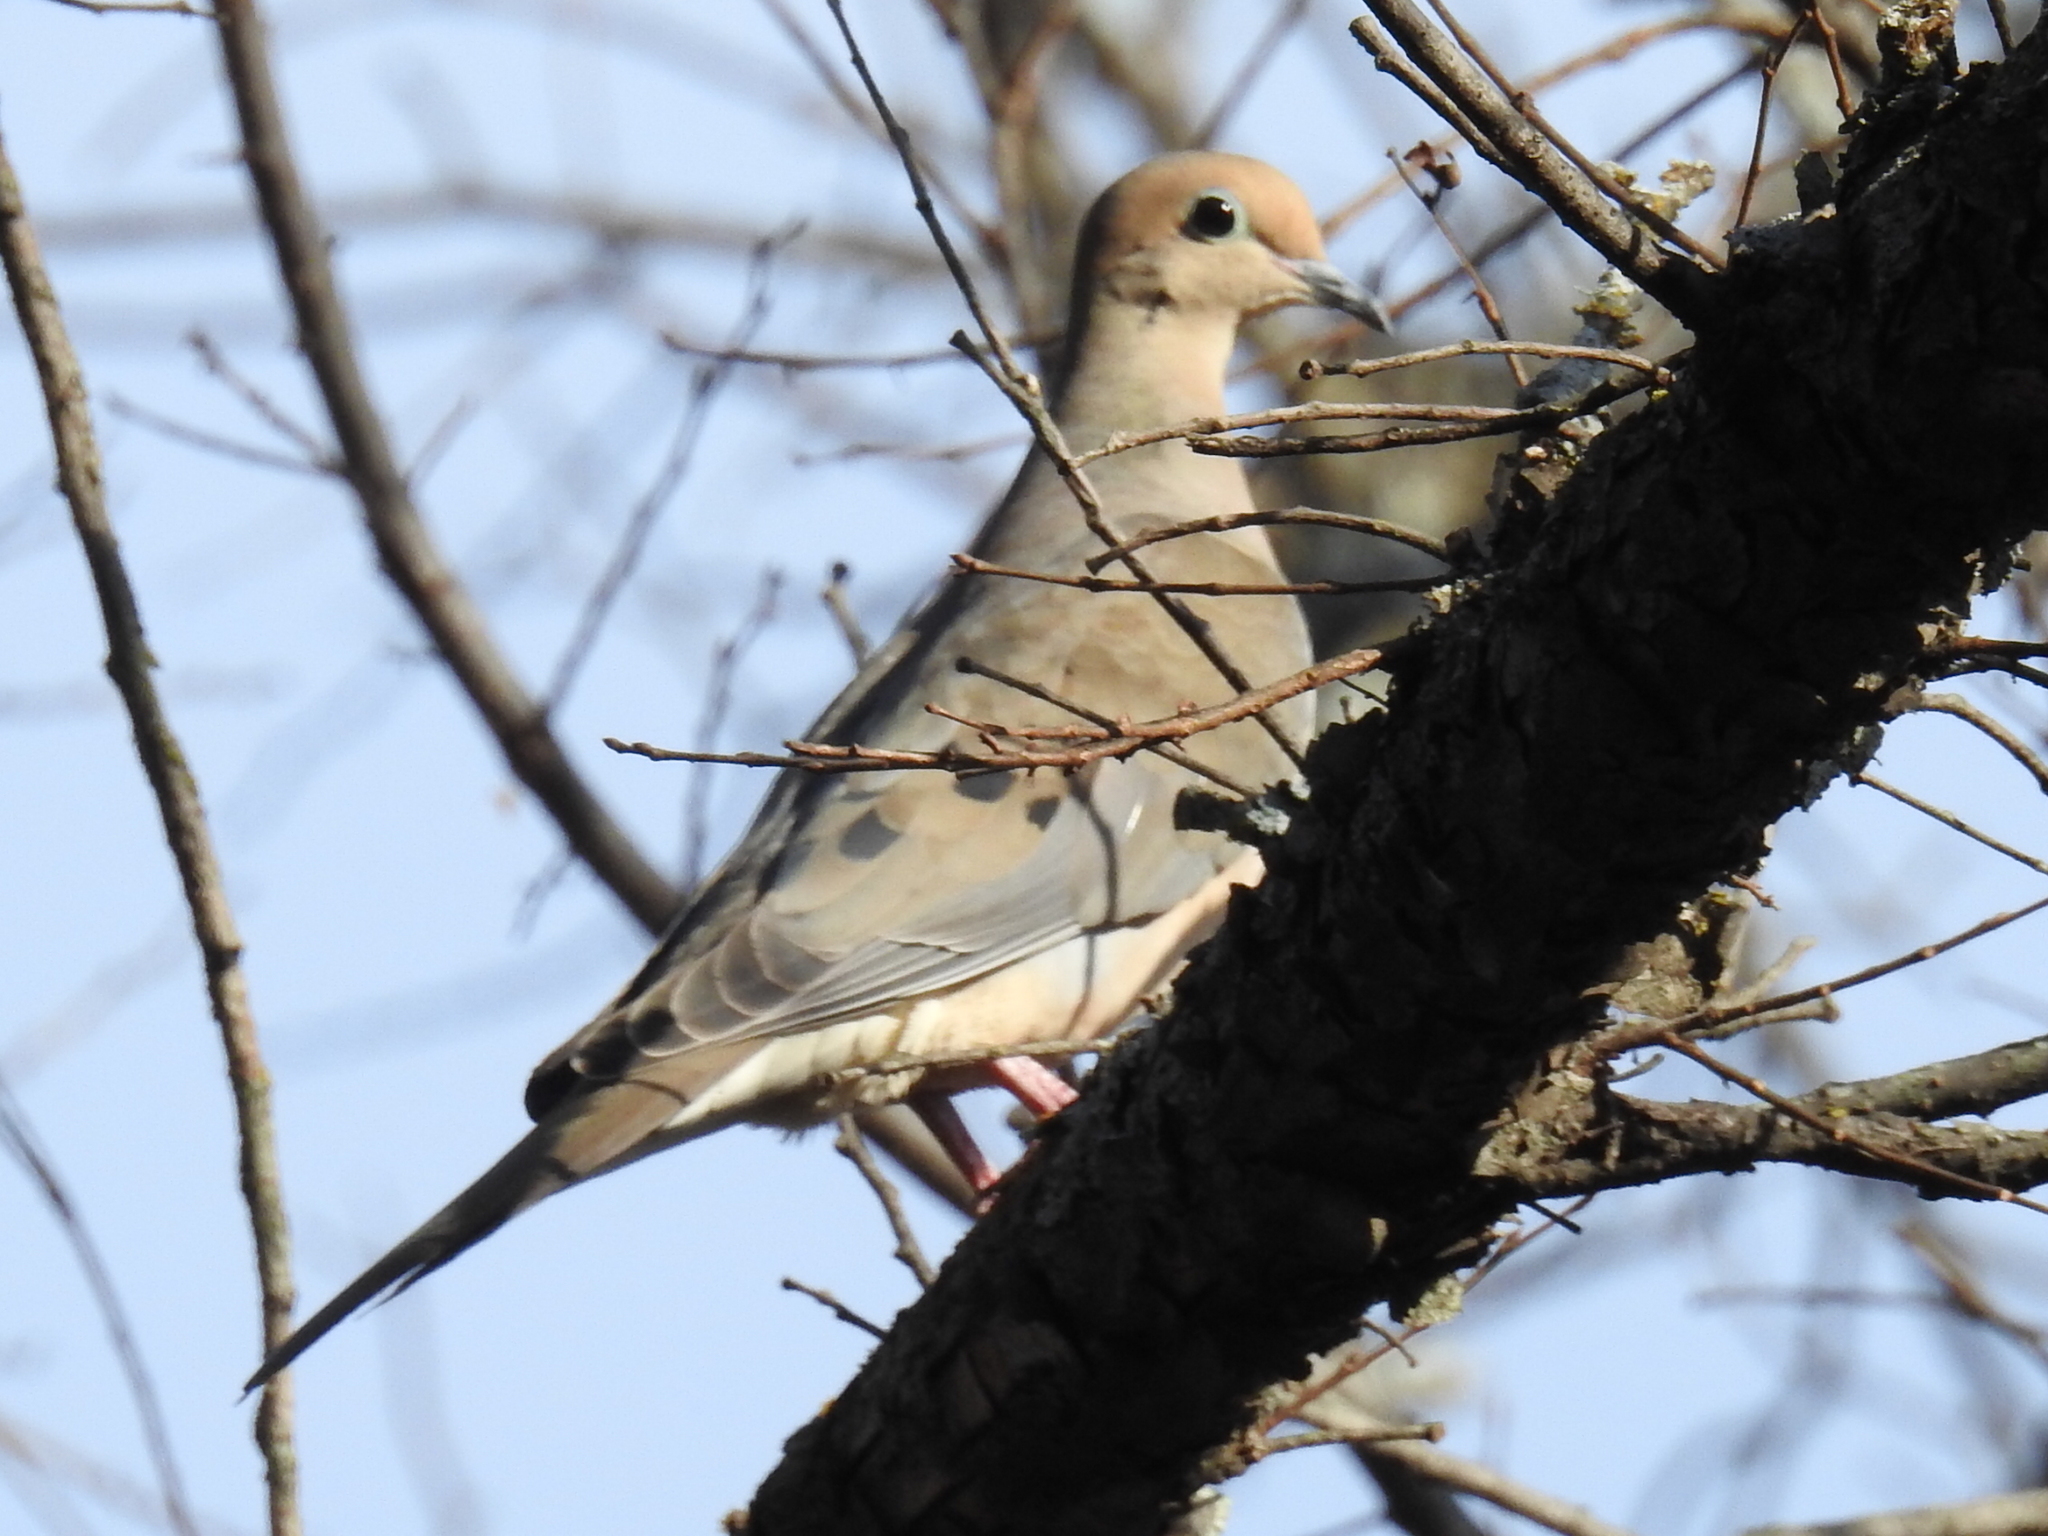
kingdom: Animalia
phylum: Chordata
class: Aves
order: Columbiformes
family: Columbidae
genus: Zenaida
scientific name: Zenaida macroura
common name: Mourning dove
